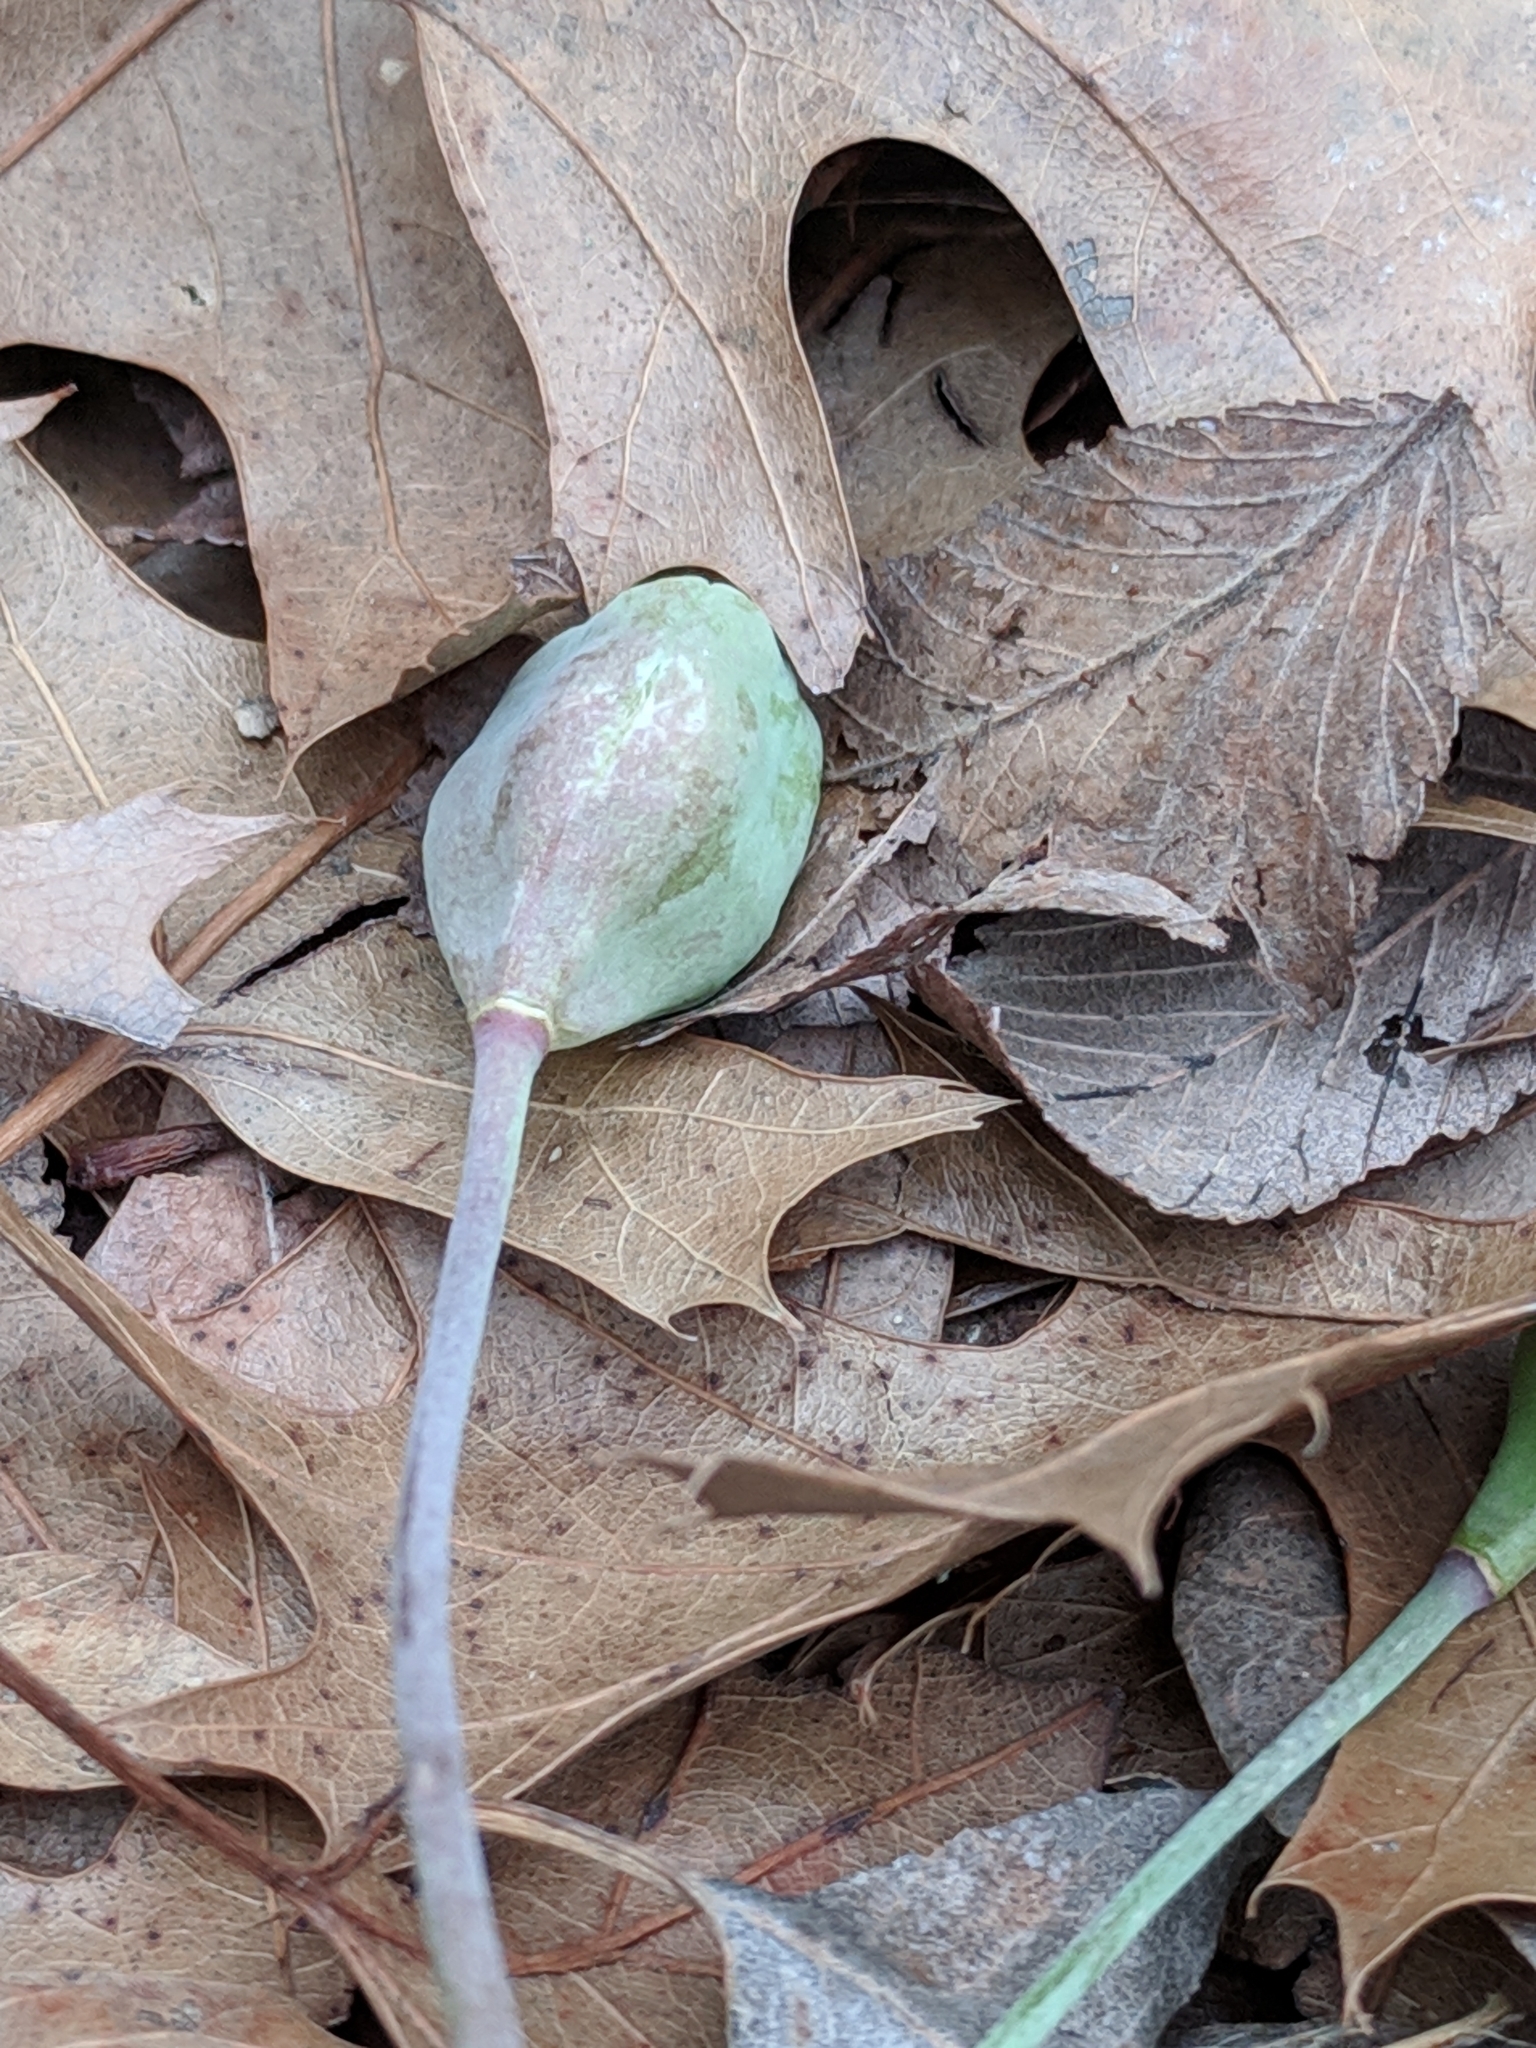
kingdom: Plantae
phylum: Tracheophyta
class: Liliopsida
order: Liliales
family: Liliaceae
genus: Erythronium
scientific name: Erythronium albidum
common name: White trout-lily
